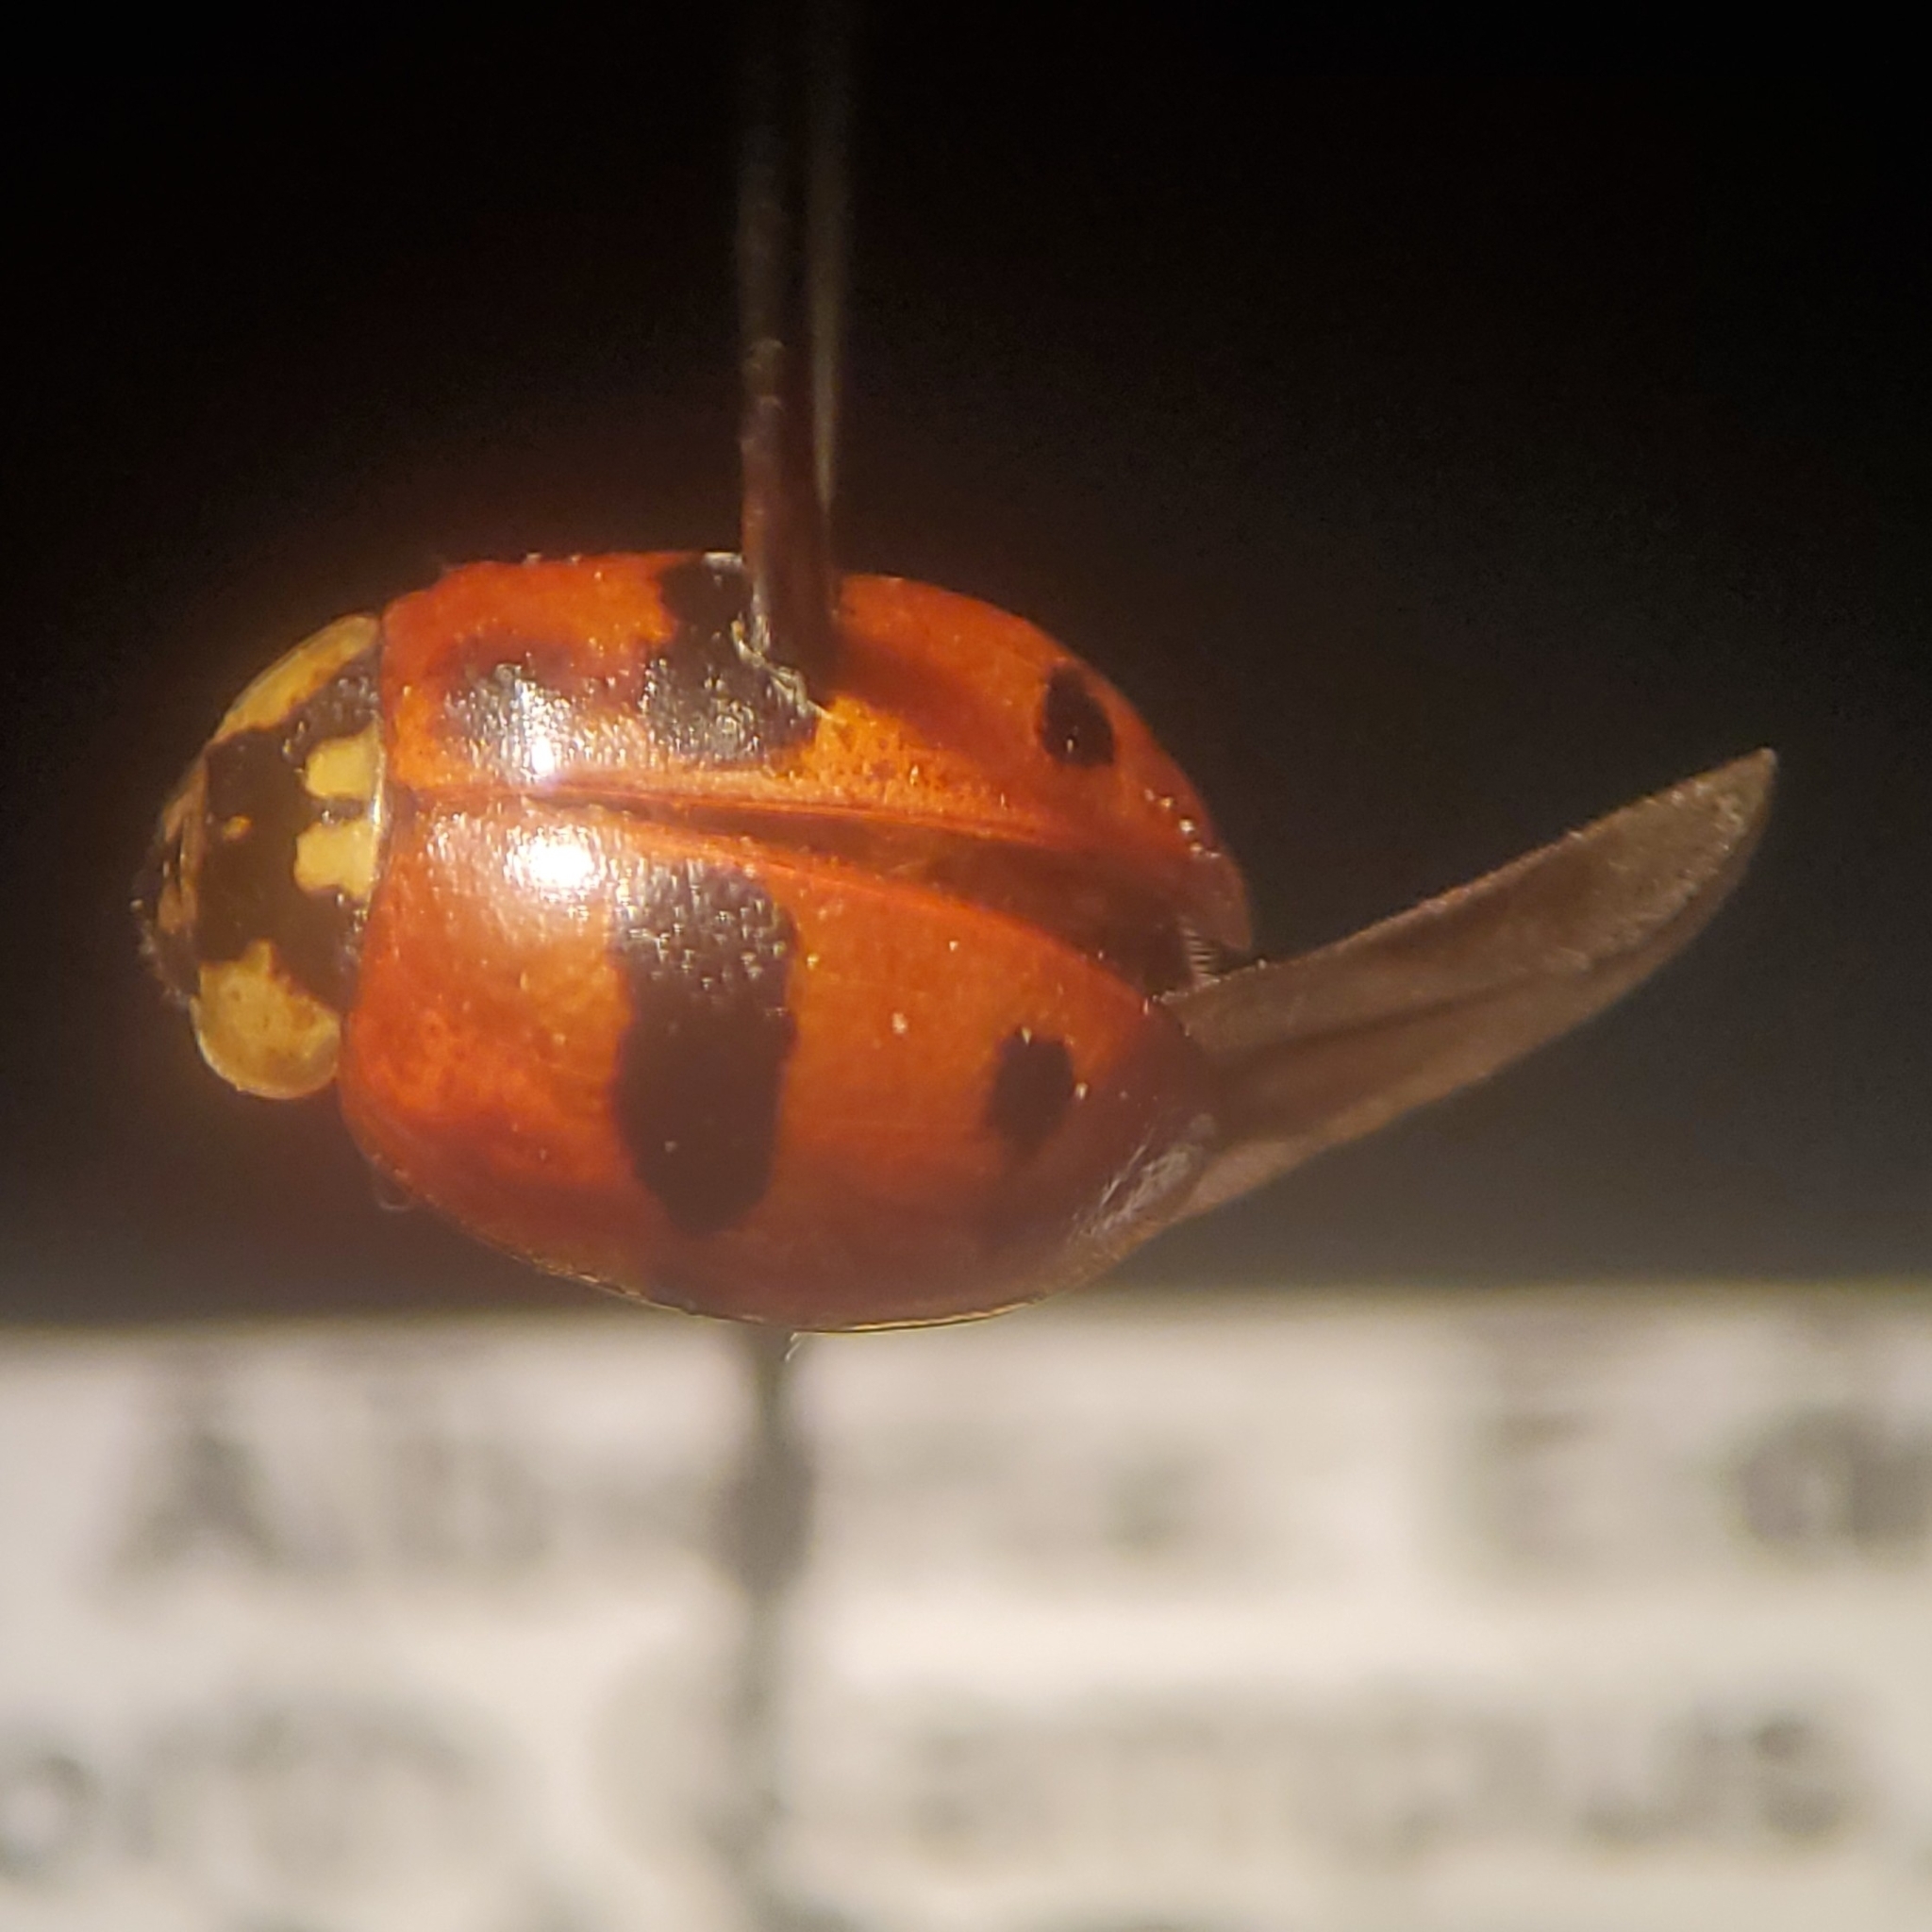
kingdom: Animalia
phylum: Arthropoda
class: Insecta
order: Coleoptera
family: Coccinellidae
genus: Adalia
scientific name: Adalia bipunctata
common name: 2-spot ladybird
